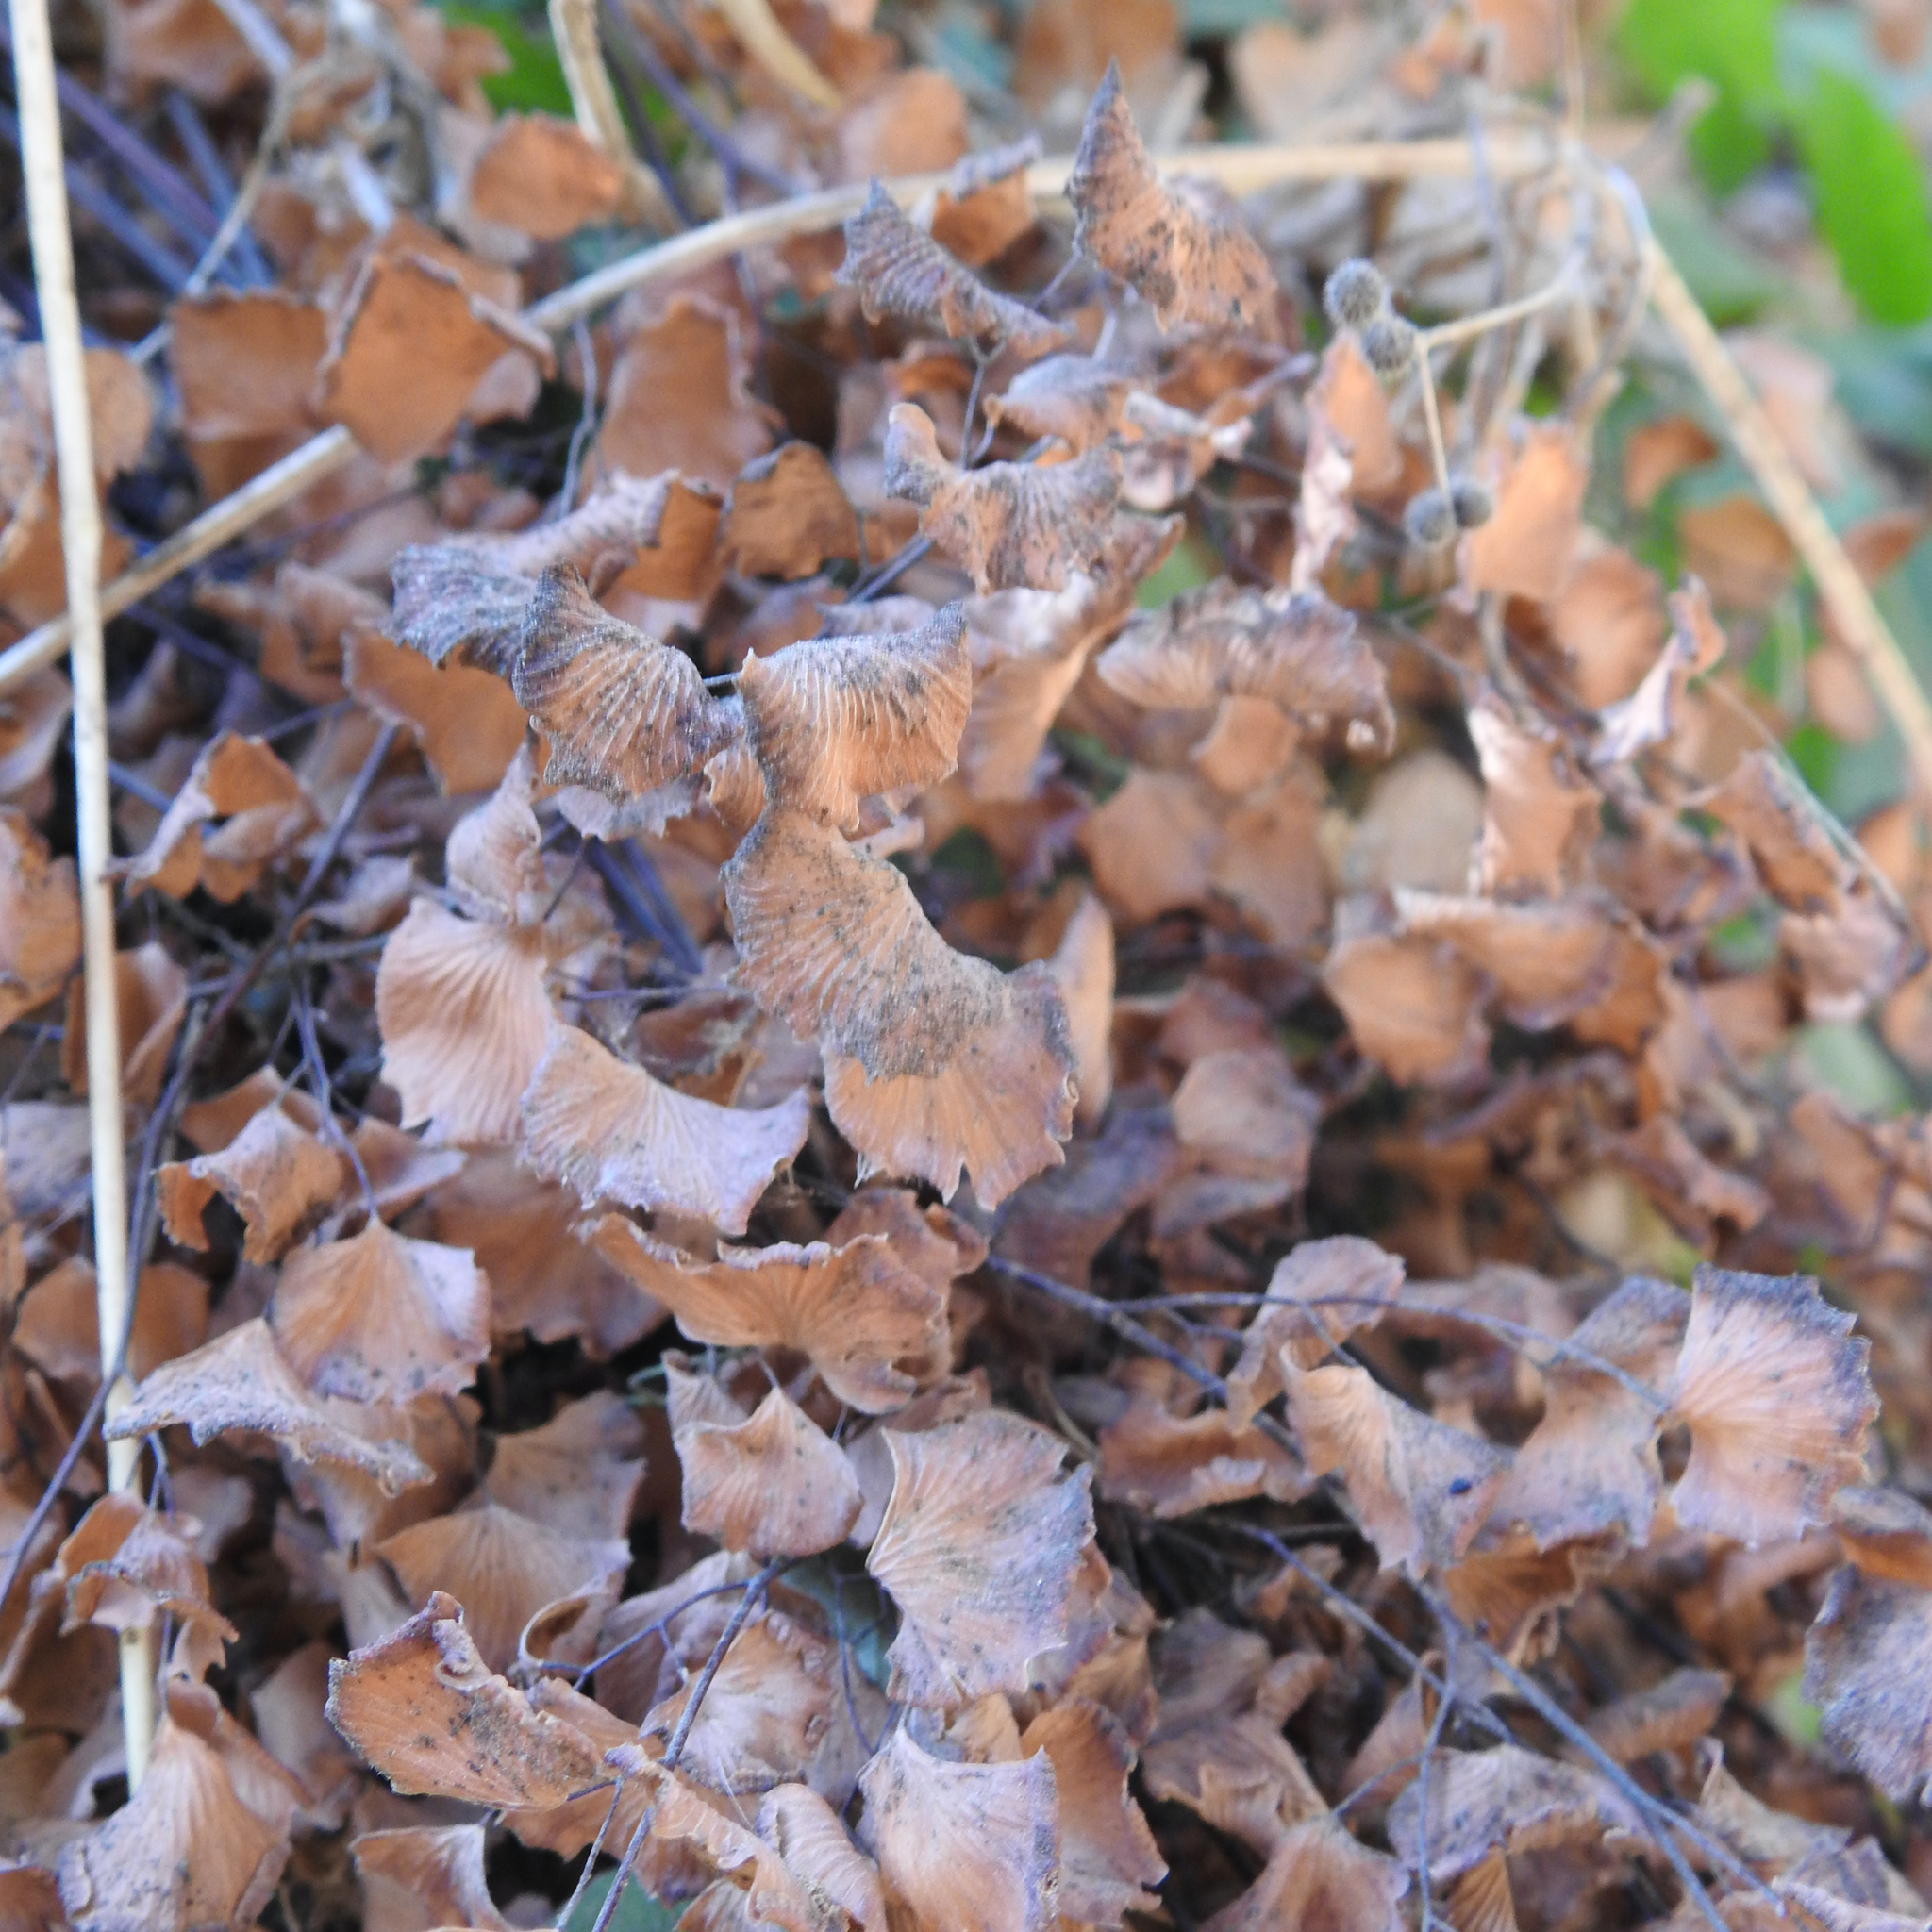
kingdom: Plantae
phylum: Tracheophyta
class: Polypodiopsida
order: Polypodiales
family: Pteridaceae
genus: Adiantum
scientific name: Adiantum jordanii
